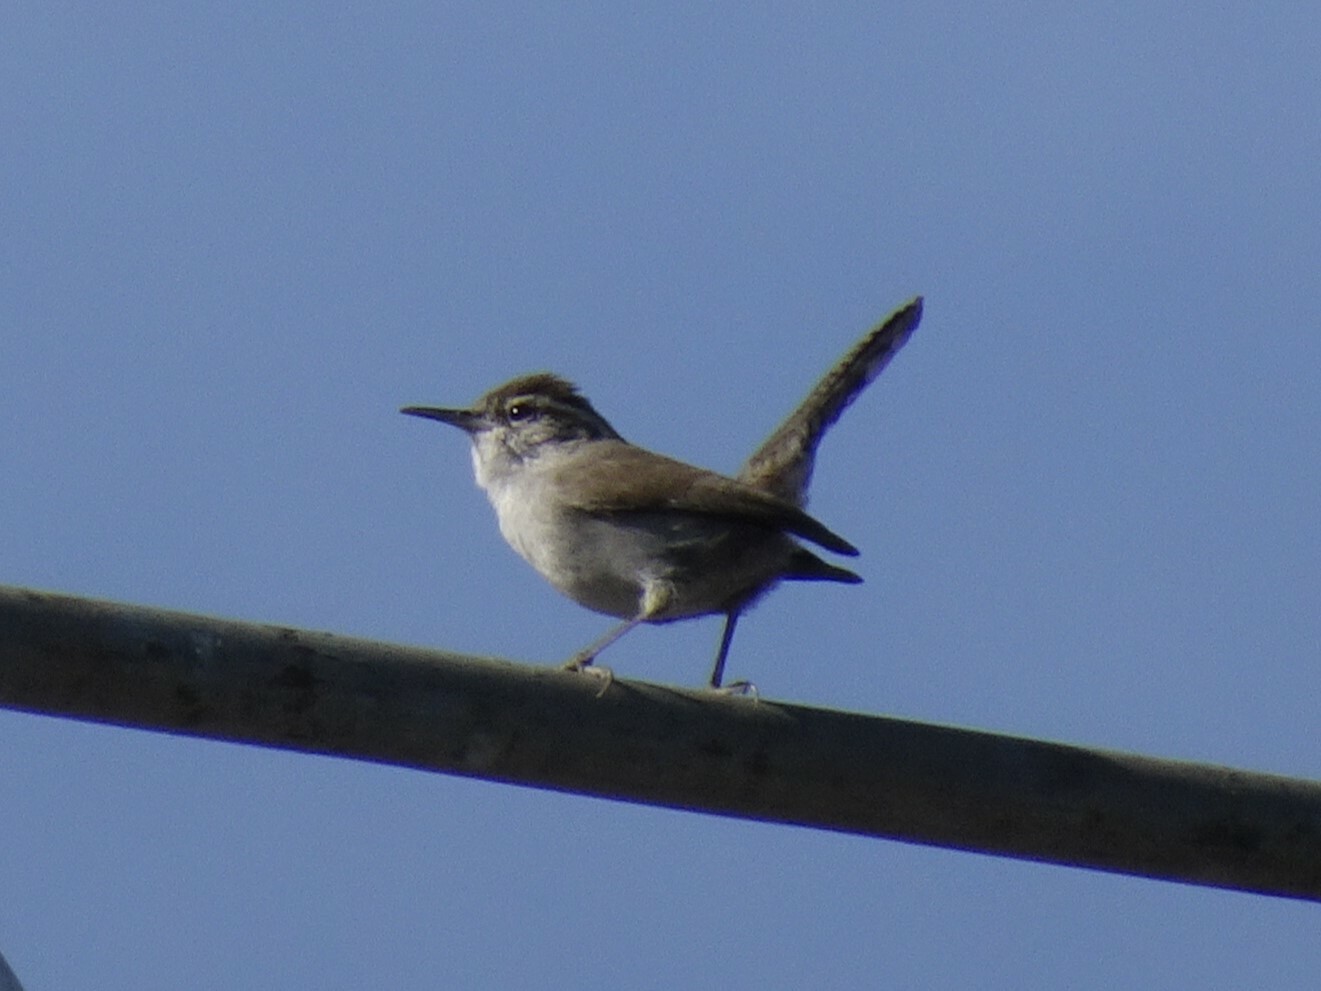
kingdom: Animalia
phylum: Chordata
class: Aves
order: Passeriformes
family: Troglodytidae
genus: Thryomanes
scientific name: Thryomanes bewickii
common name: Bewick's wren
